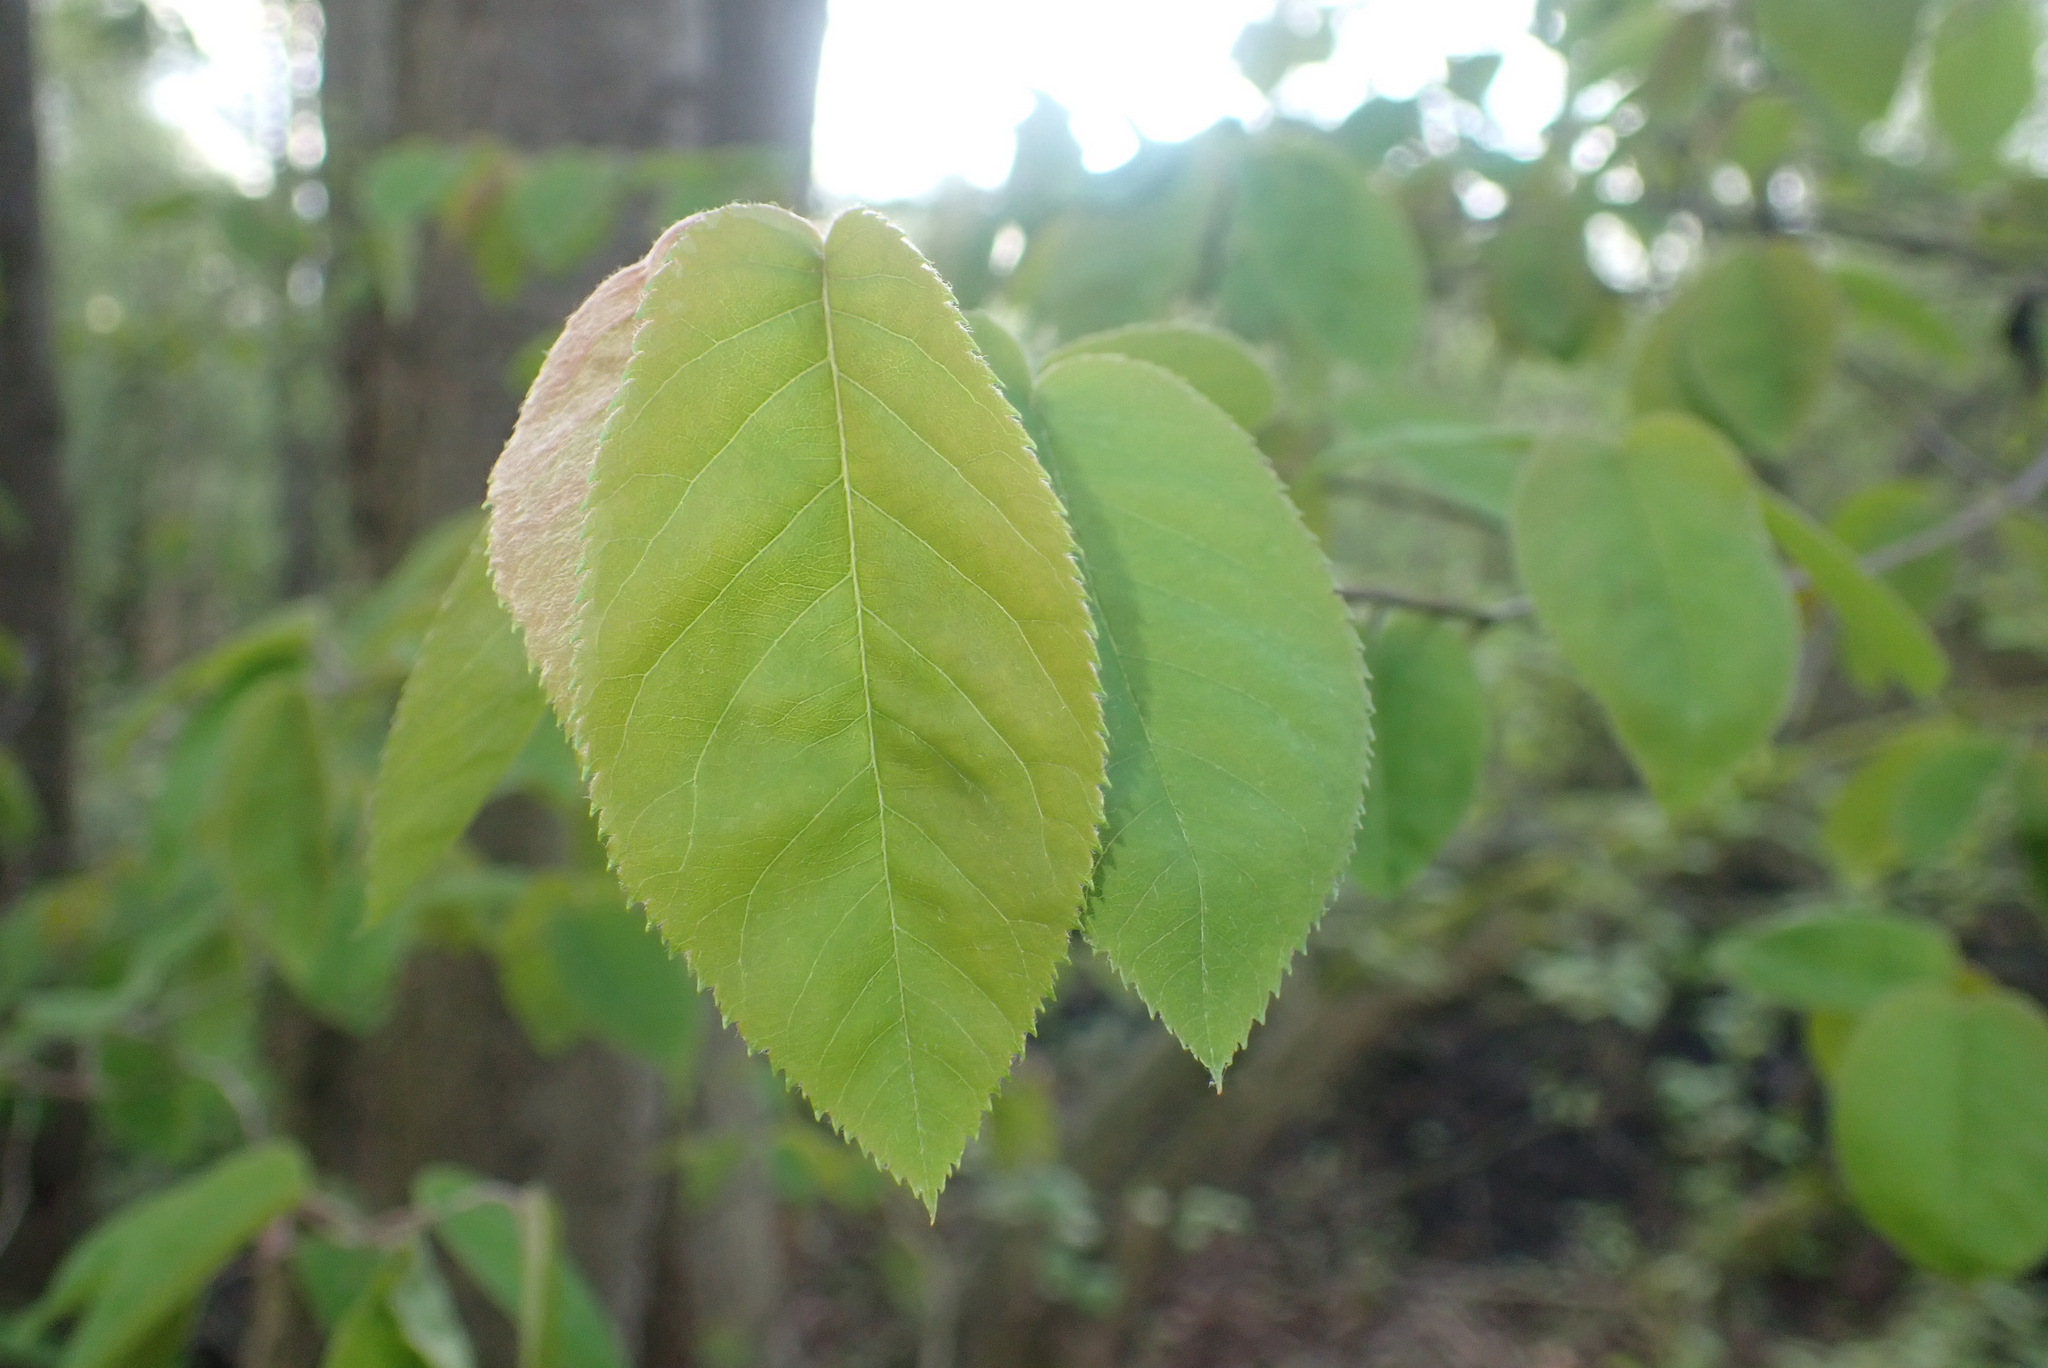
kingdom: Plantae
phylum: Tracheophyta
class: Magnoliopsida
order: Rosales
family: Rosaceae
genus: Amelanchier
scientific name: Amelanchier lamarckii
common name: Juneberry
